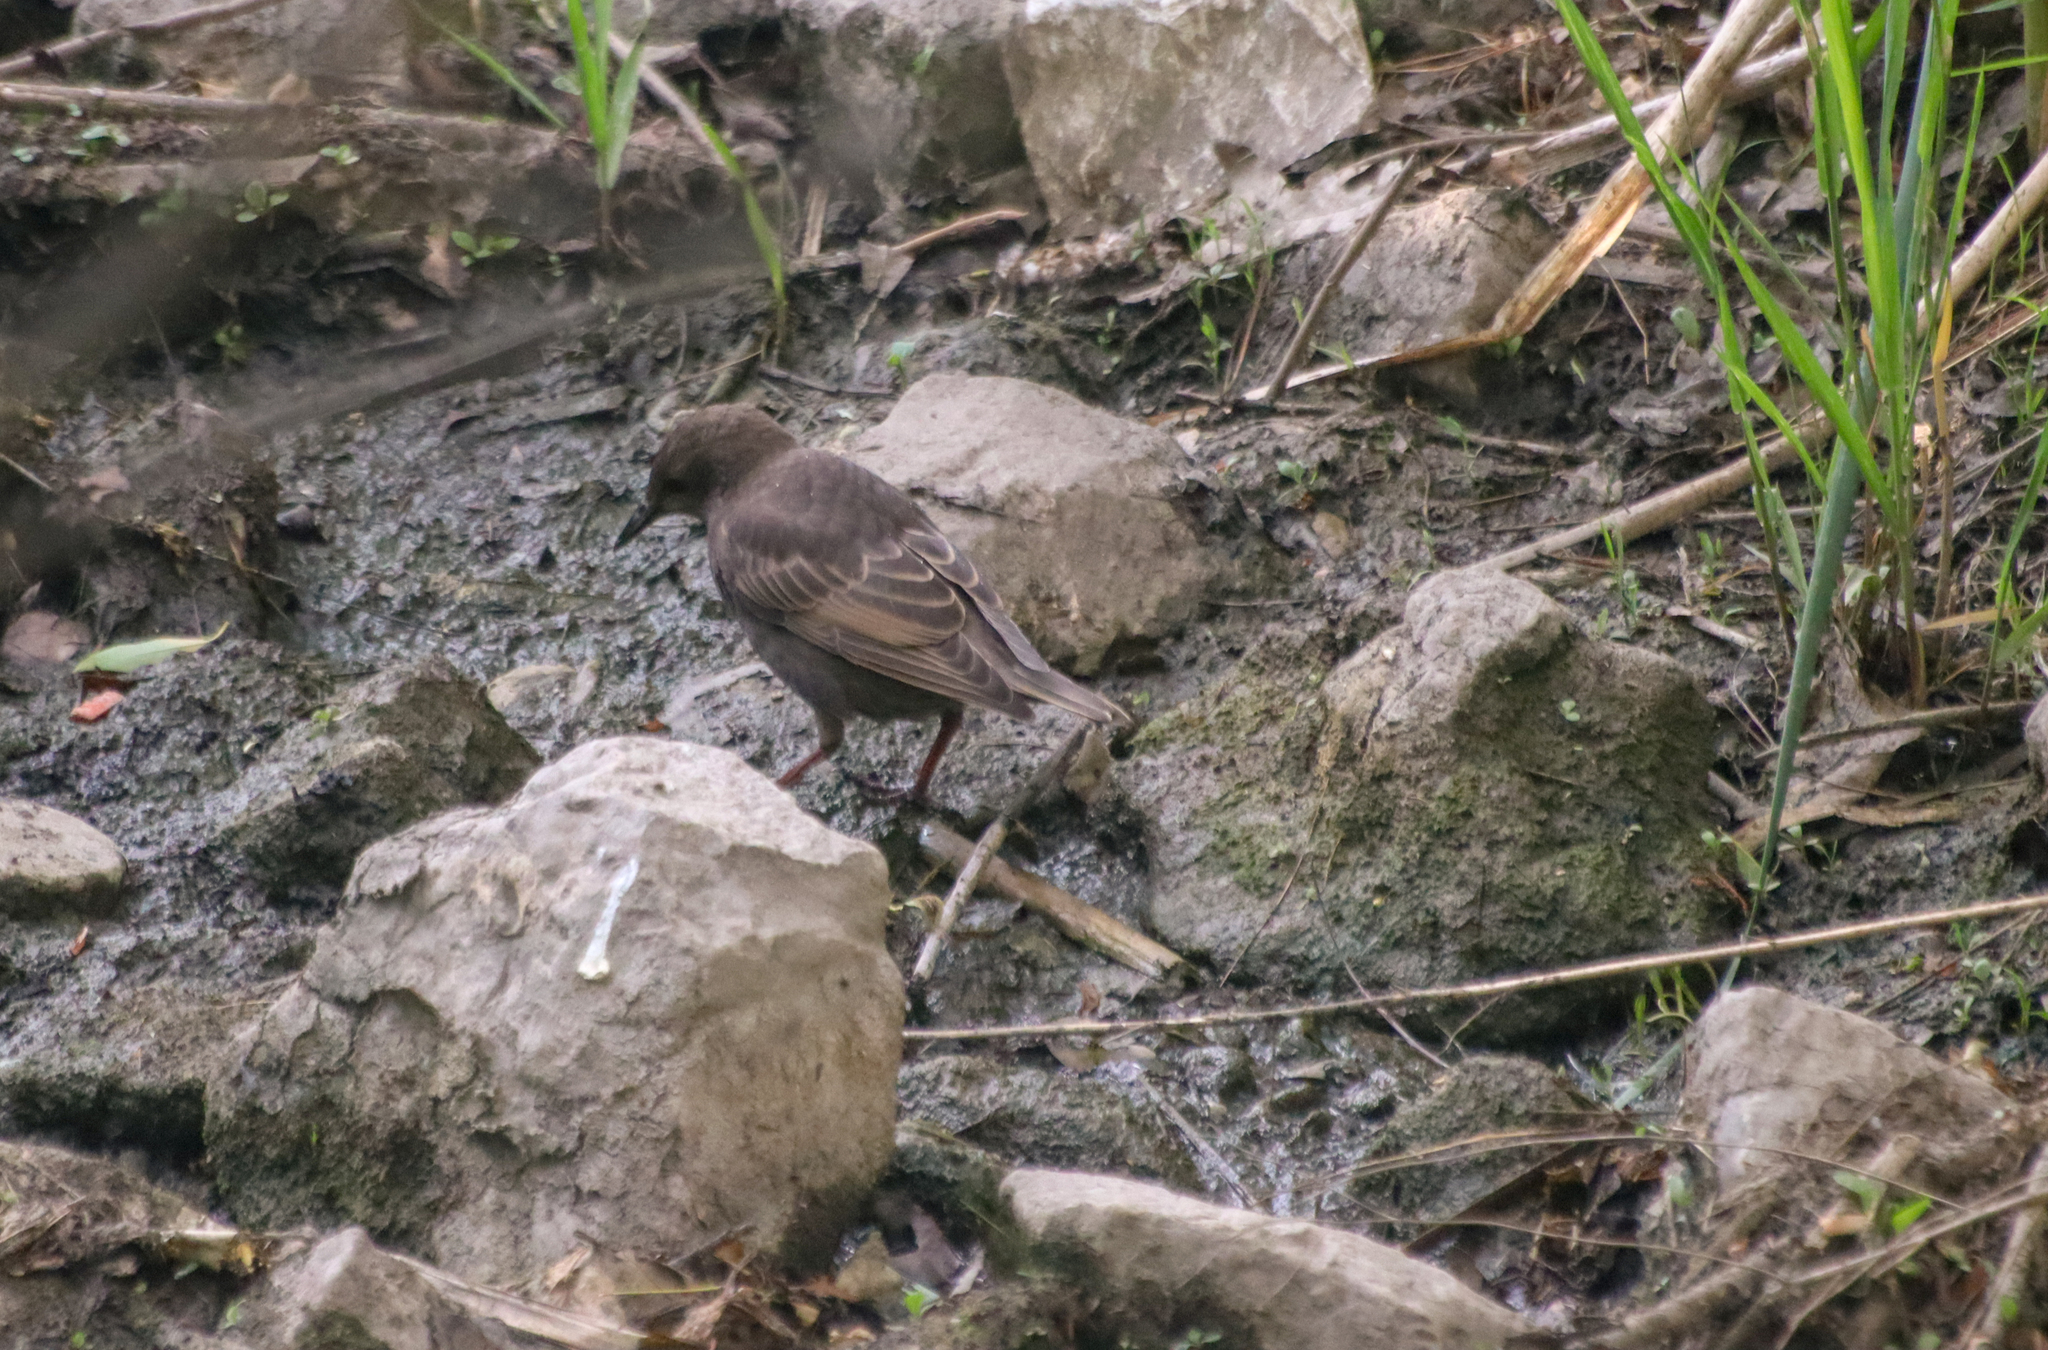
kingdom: Animalia
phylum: Chordata
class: Aves
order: Passeriformes
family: Sturnidae
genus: Sturnus
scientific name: Sturnus vulgaris
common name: Common starling
